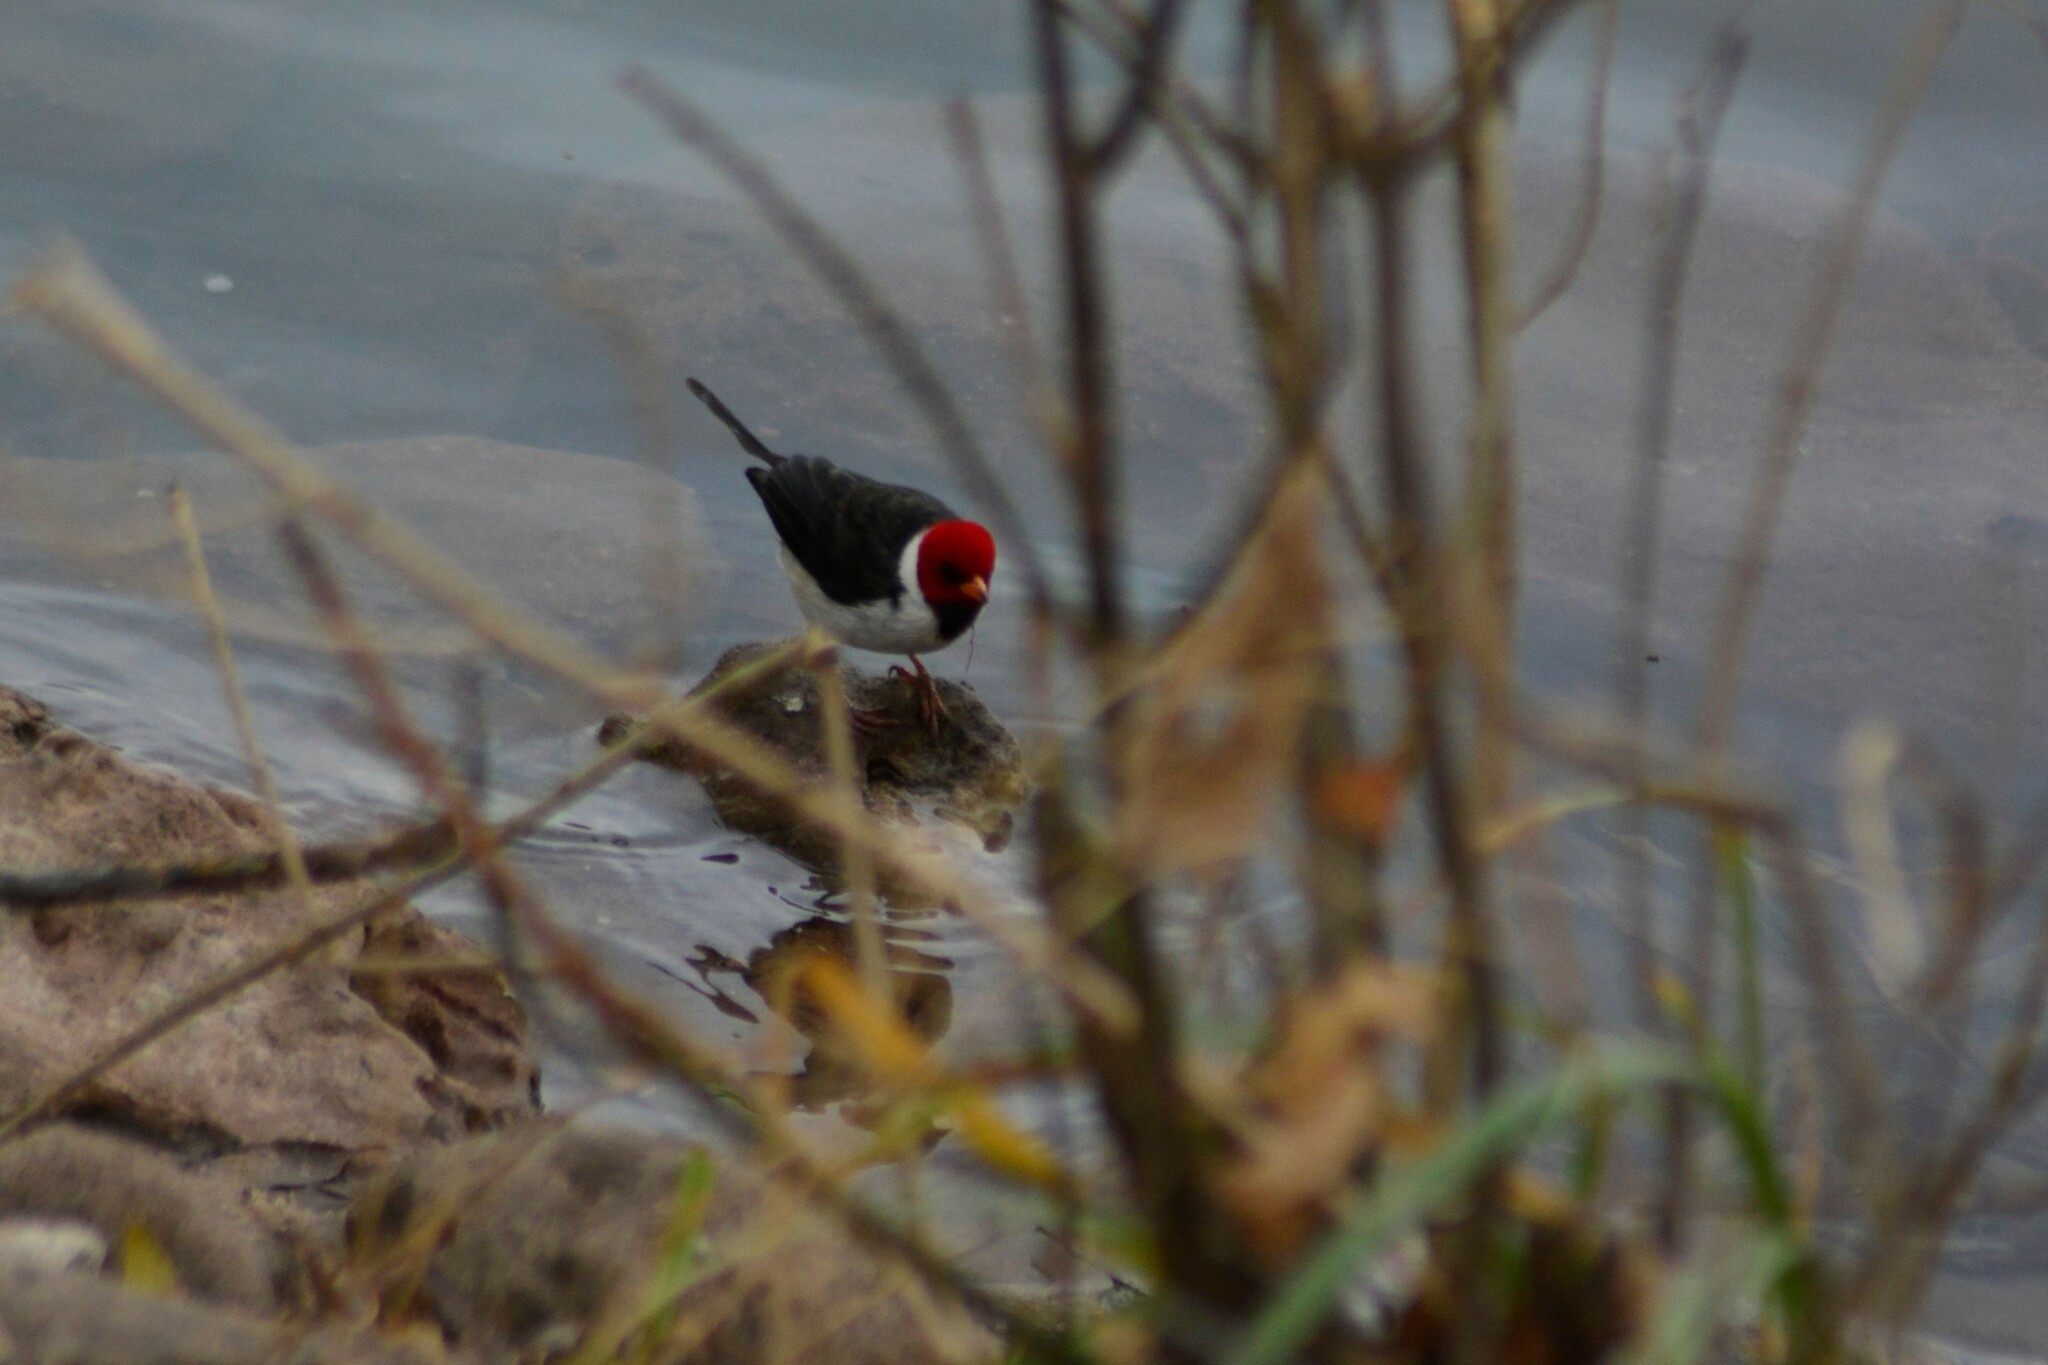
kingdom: Animalia
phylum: Chordata
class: Aves
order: Passeriformes
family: Thraupidae
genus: Paroaria
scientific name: Paroaria capitata
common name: Yellow-billed cardinal
